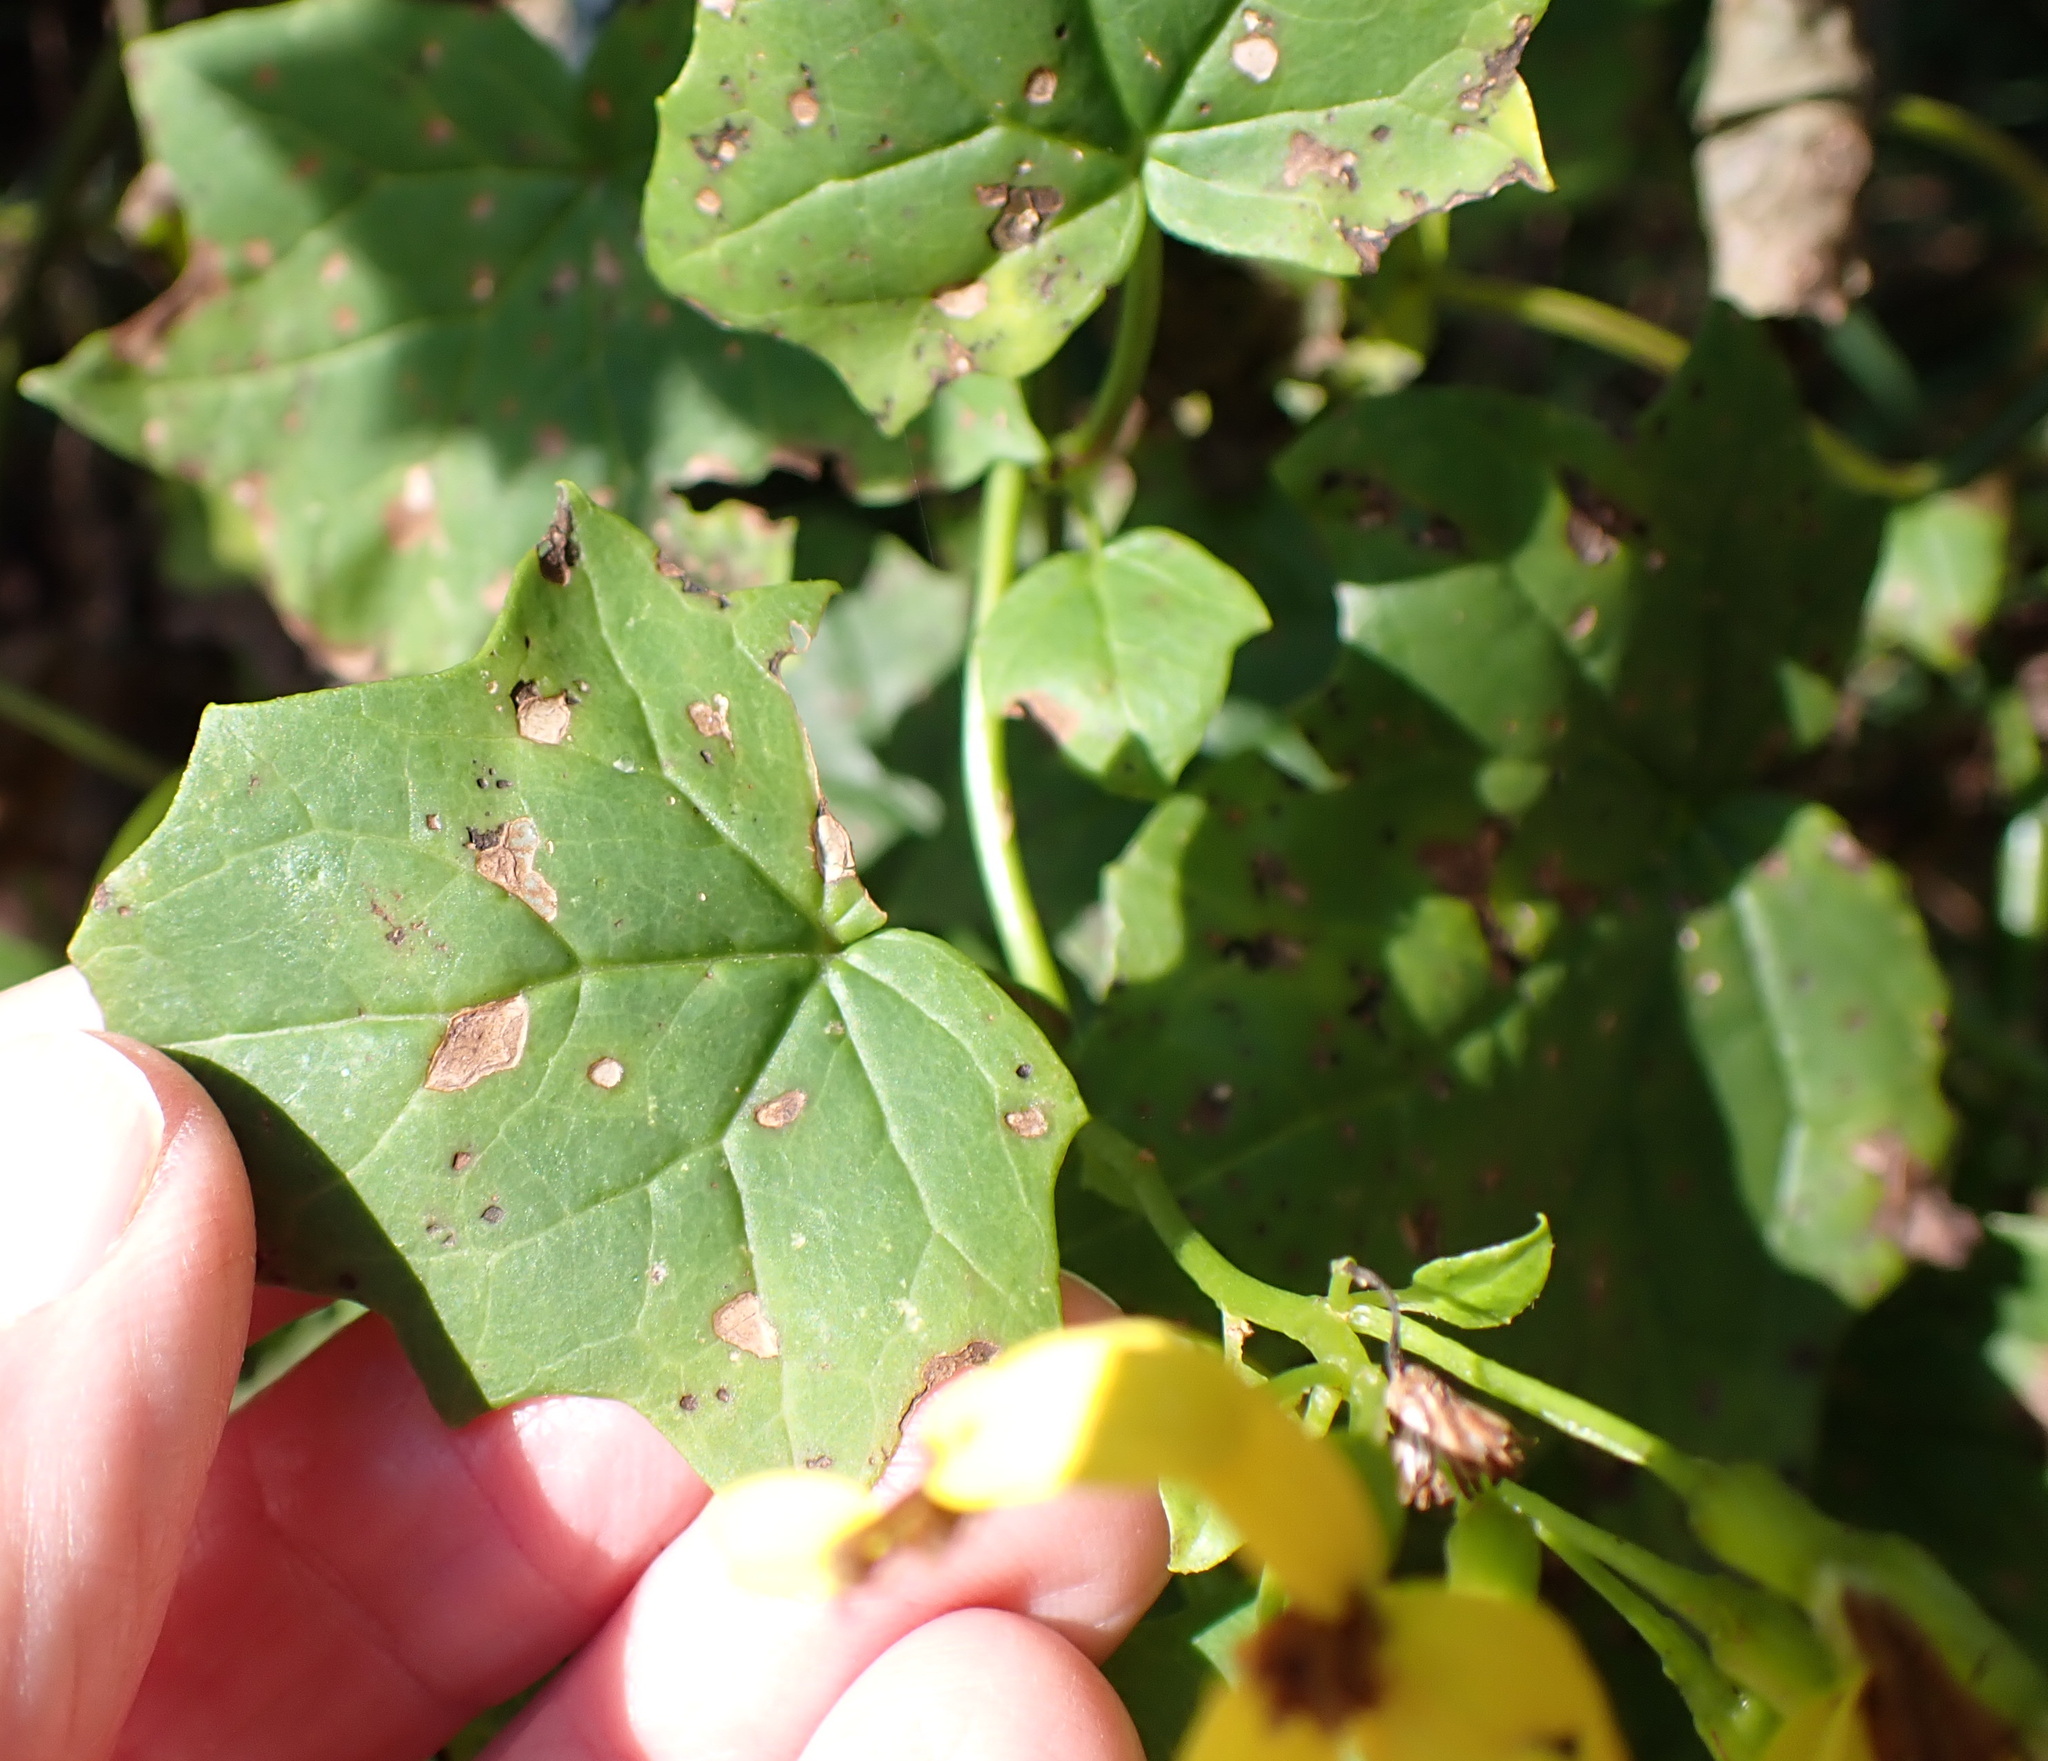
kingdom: Plantae
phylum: Tracheophyta
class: Magnoliopsida
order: Asterales
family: Asteraceae
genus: Senecio
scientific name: Senecio tamoides
